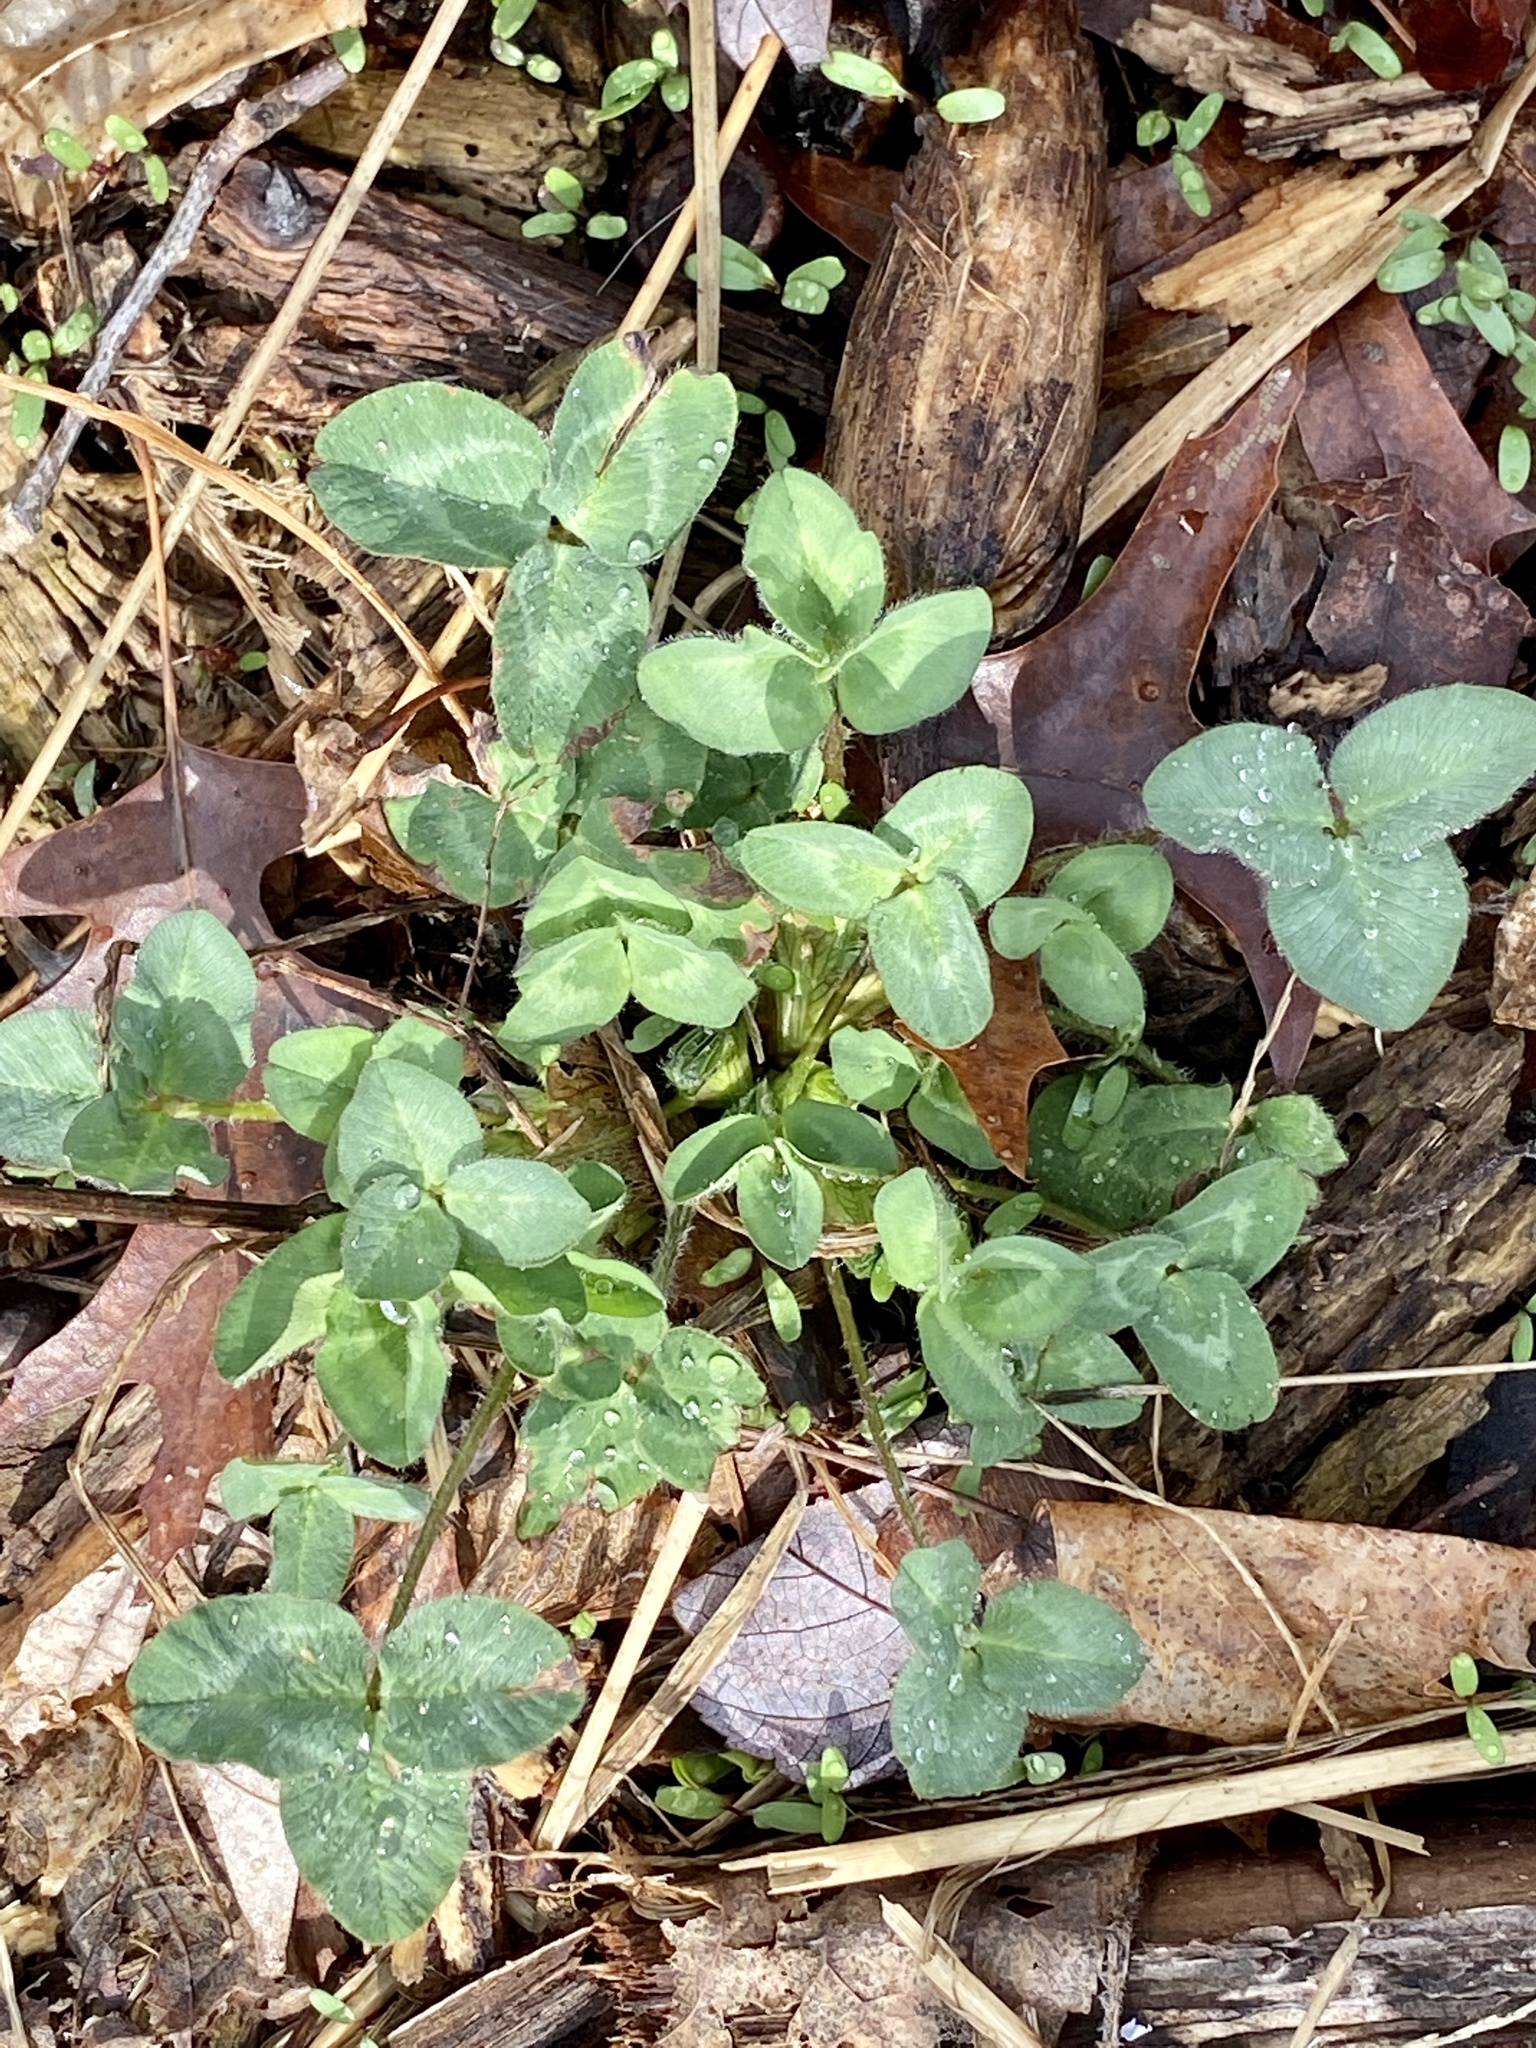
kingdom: Plantae
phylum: Tracheophyta
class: Magnoliopsida
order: Fabales
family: Fabaceae
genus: Trifolium
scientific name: Trifolium pratense
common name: Red clover
